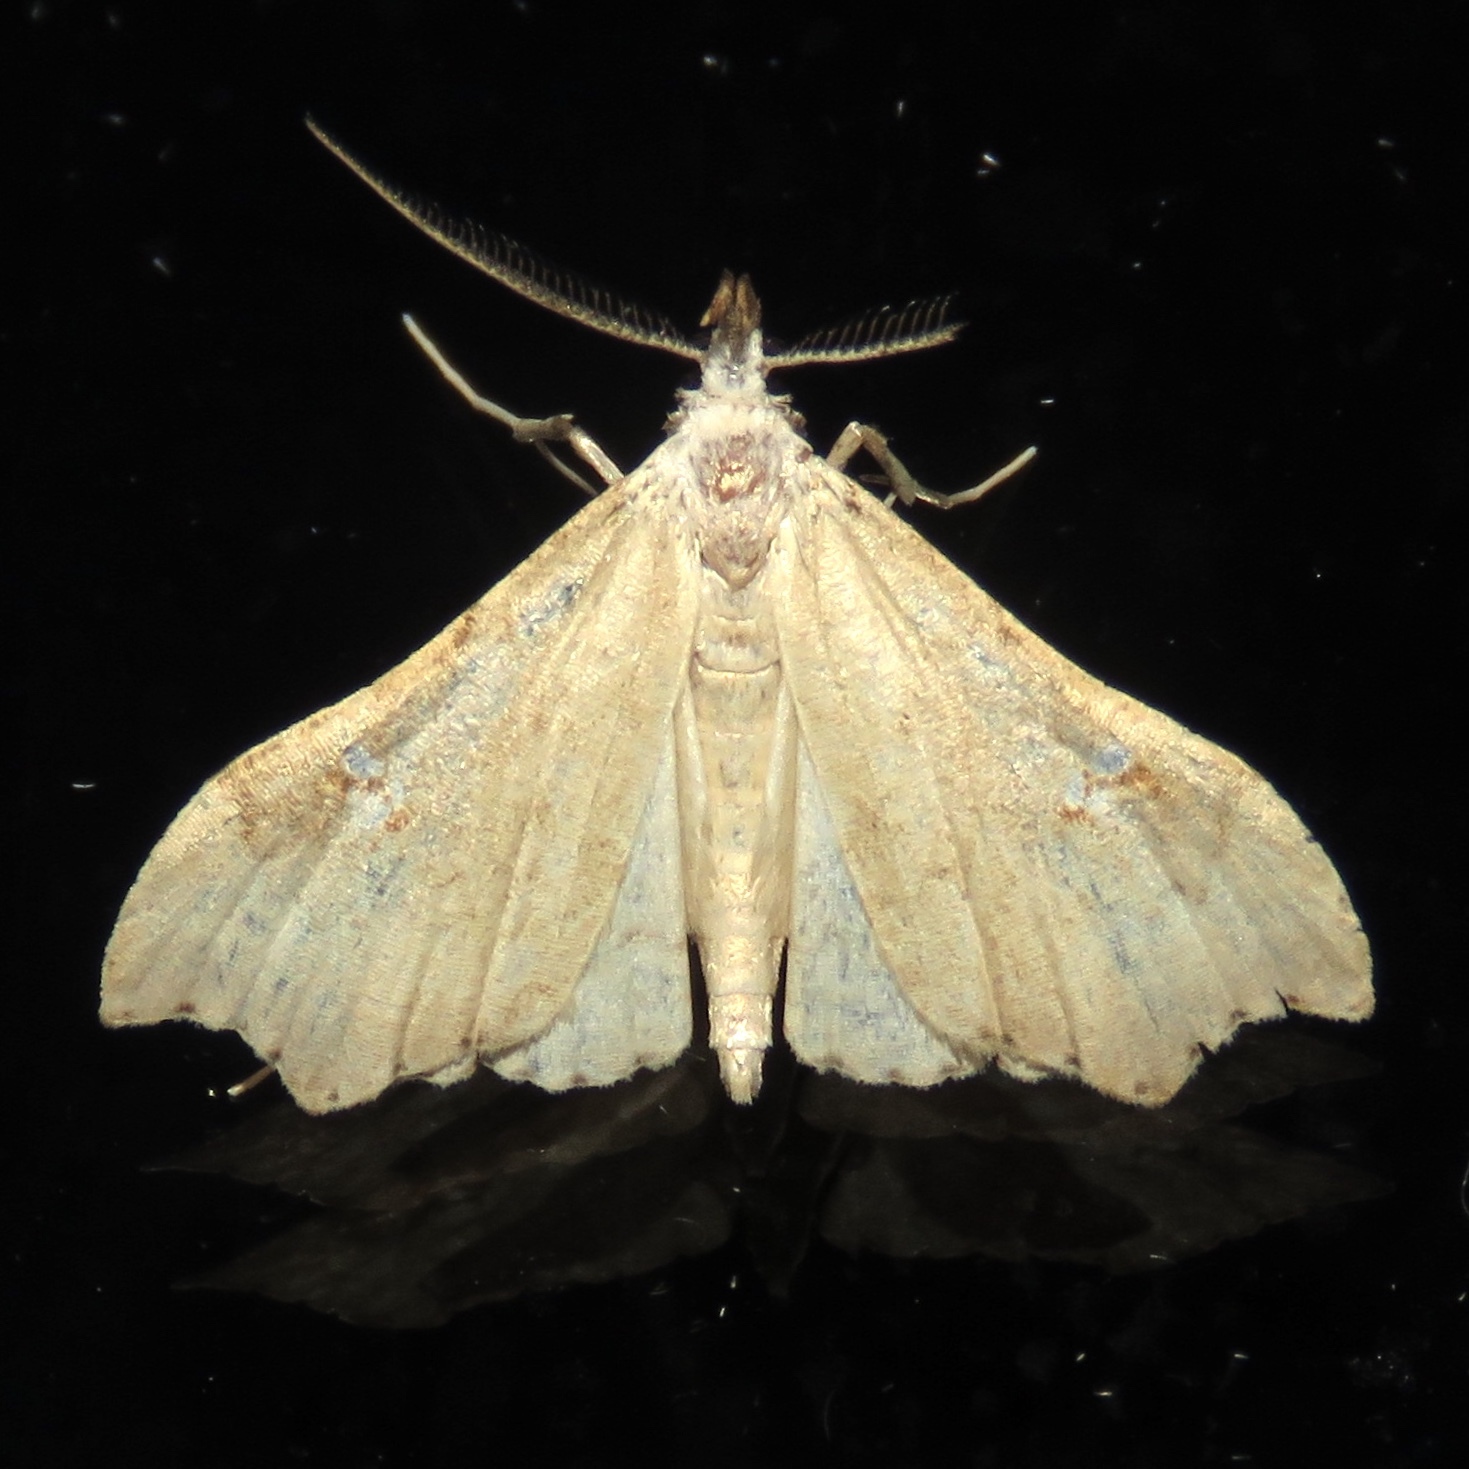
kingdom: Animalia
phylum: Arthropoda
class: Insecta
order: Lepidoptera
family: Erebidae
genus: Redectis
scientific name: Redectis vitrea
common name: White-spotted redectis
